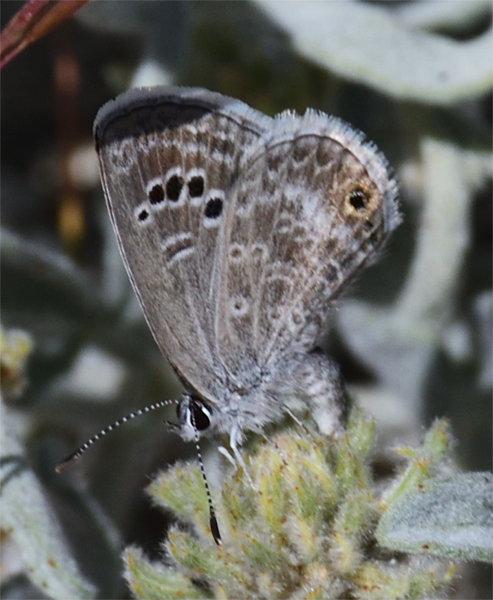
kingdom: Animalia
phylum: Arthropoda
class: Insecta
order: Lepidoptera
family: Lycaenidae
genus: Echinargus
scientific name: Echinargus isola
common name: Reakirt's blue
